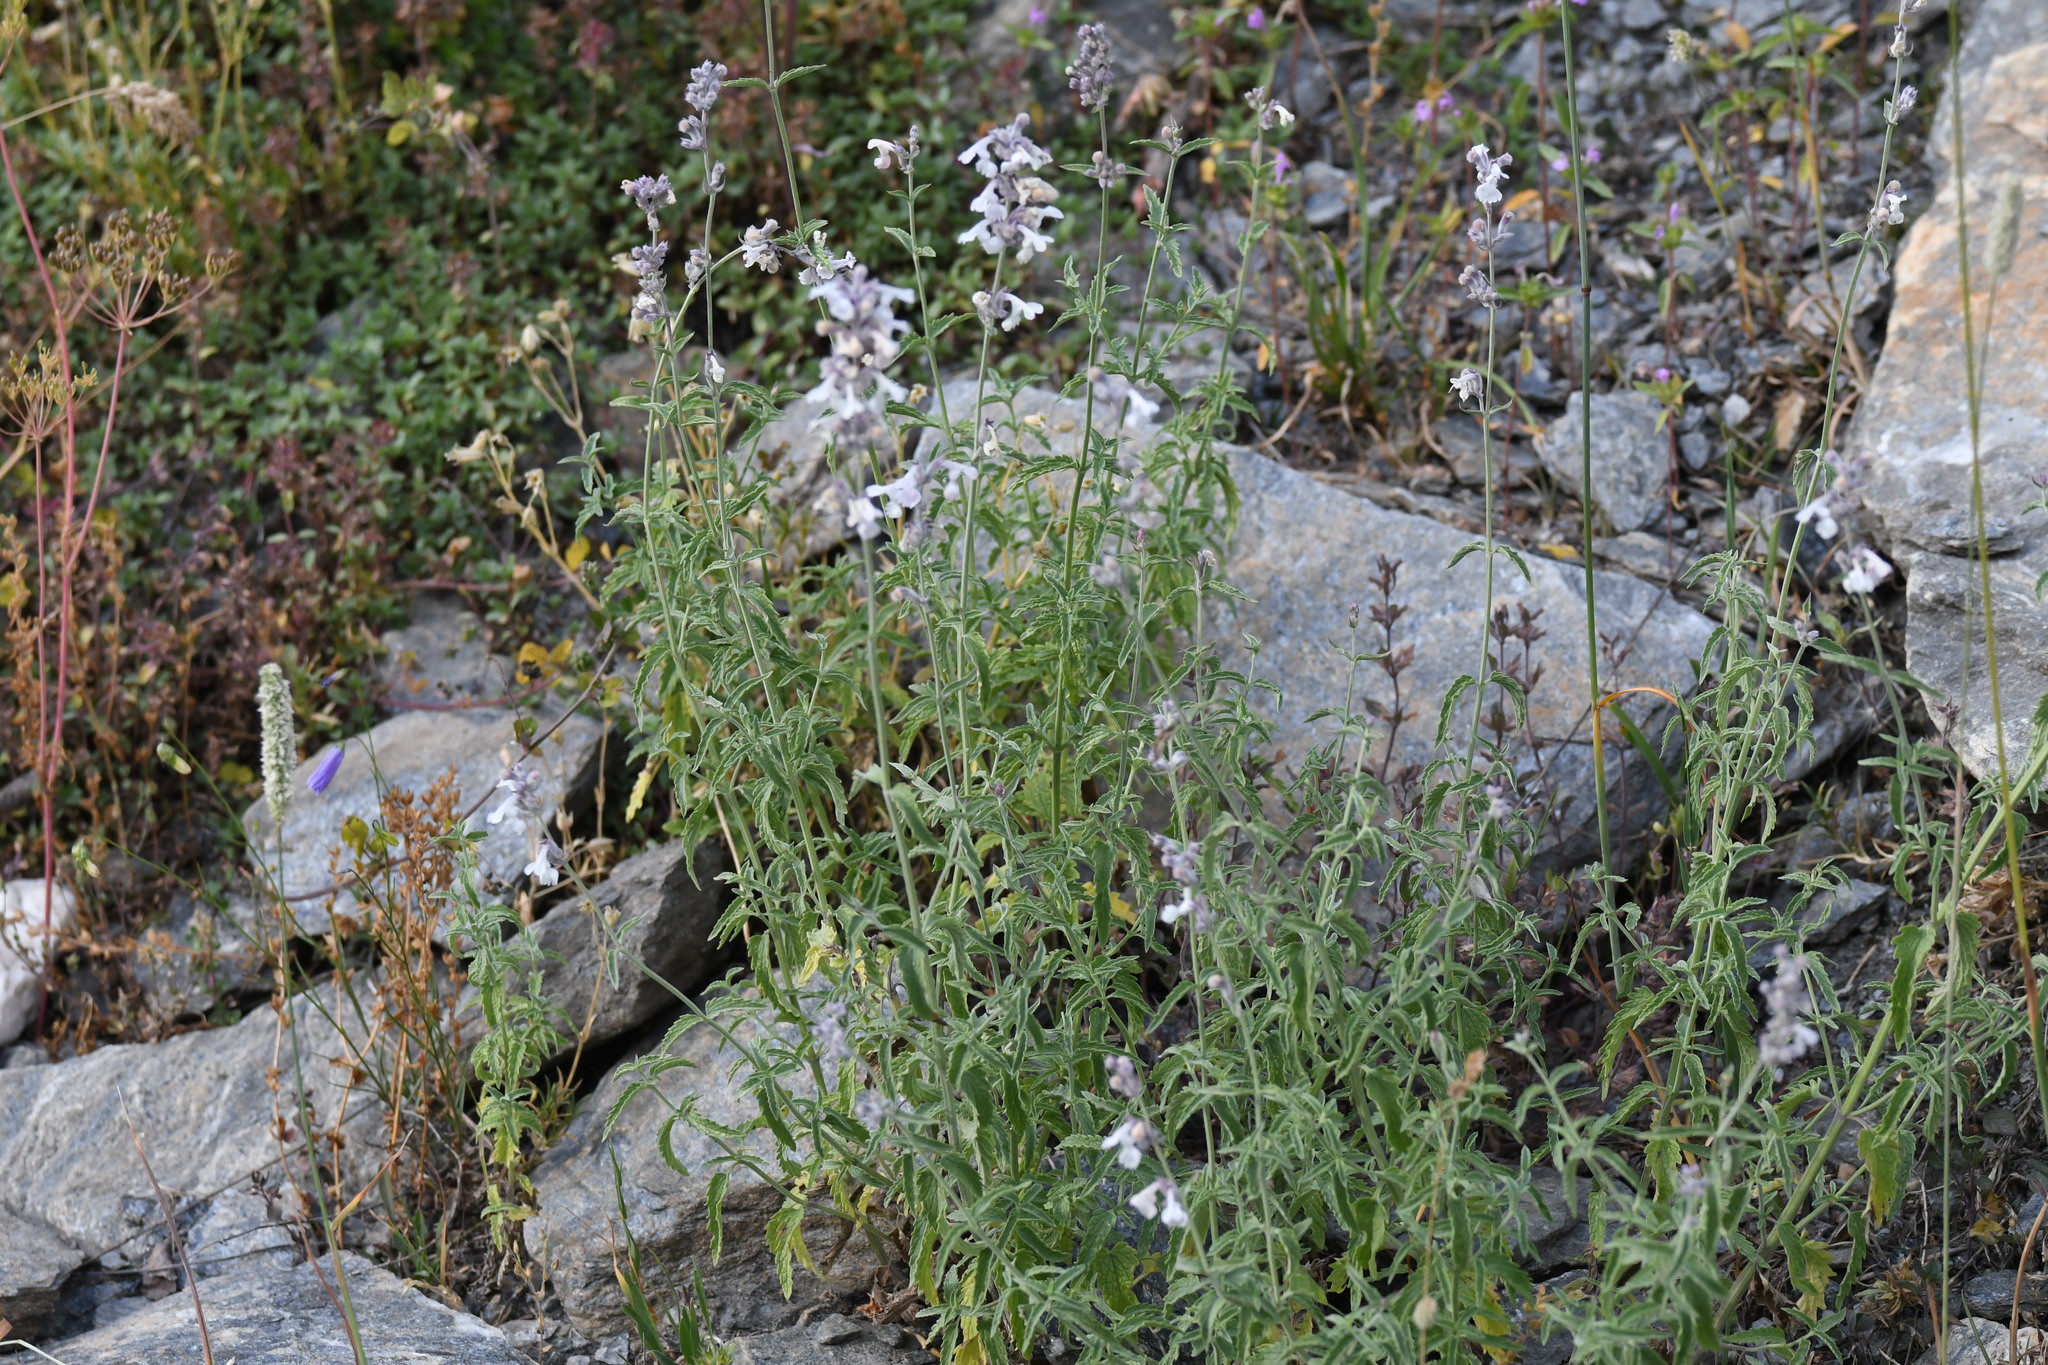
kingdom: Plantae
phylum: Tracheophyta
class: Magnoliopsida
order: Lamiales
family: Lamiaceae
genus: Nepeta
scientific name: Nepeta nepetella
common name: Lesser catmint
